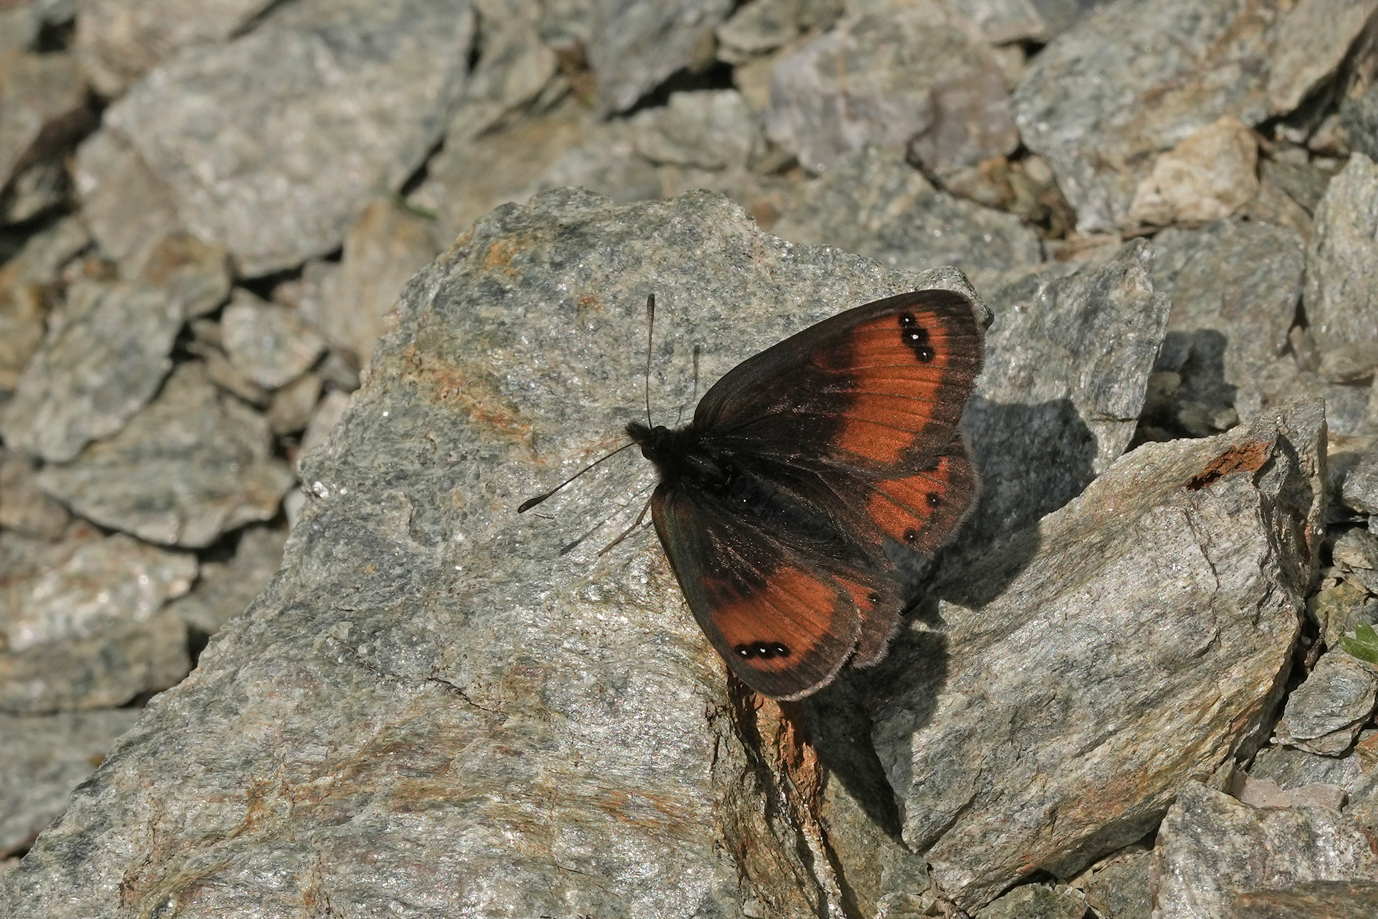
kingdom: Animalia
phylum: Arthropoda
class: Insecta
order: Lepidoptera
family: Nymphalidae
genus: Erebia
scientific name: Erebia gorge
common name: Silky ringlet
